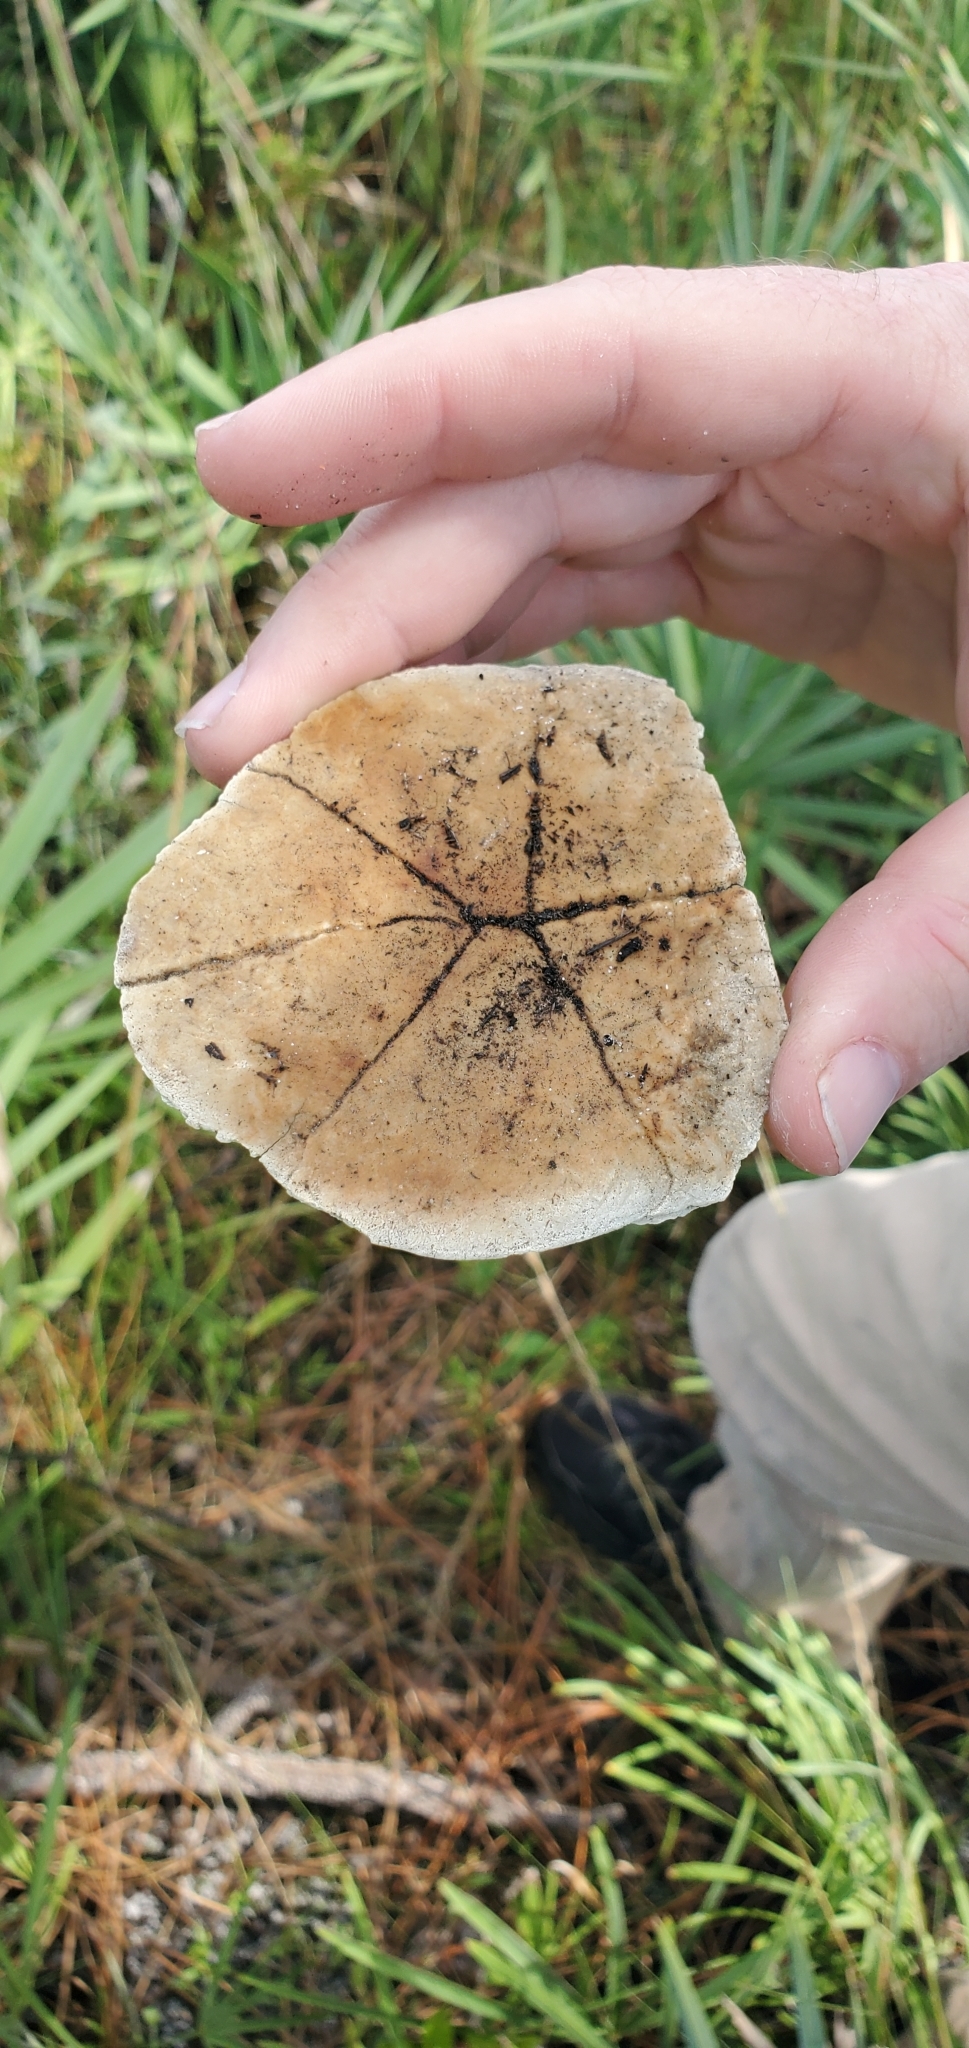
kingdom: Animalia
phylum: Chordata
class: Testudines
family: Emydidae
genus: Terrapene
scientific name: Terrapene carolina
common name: Common box turtle
